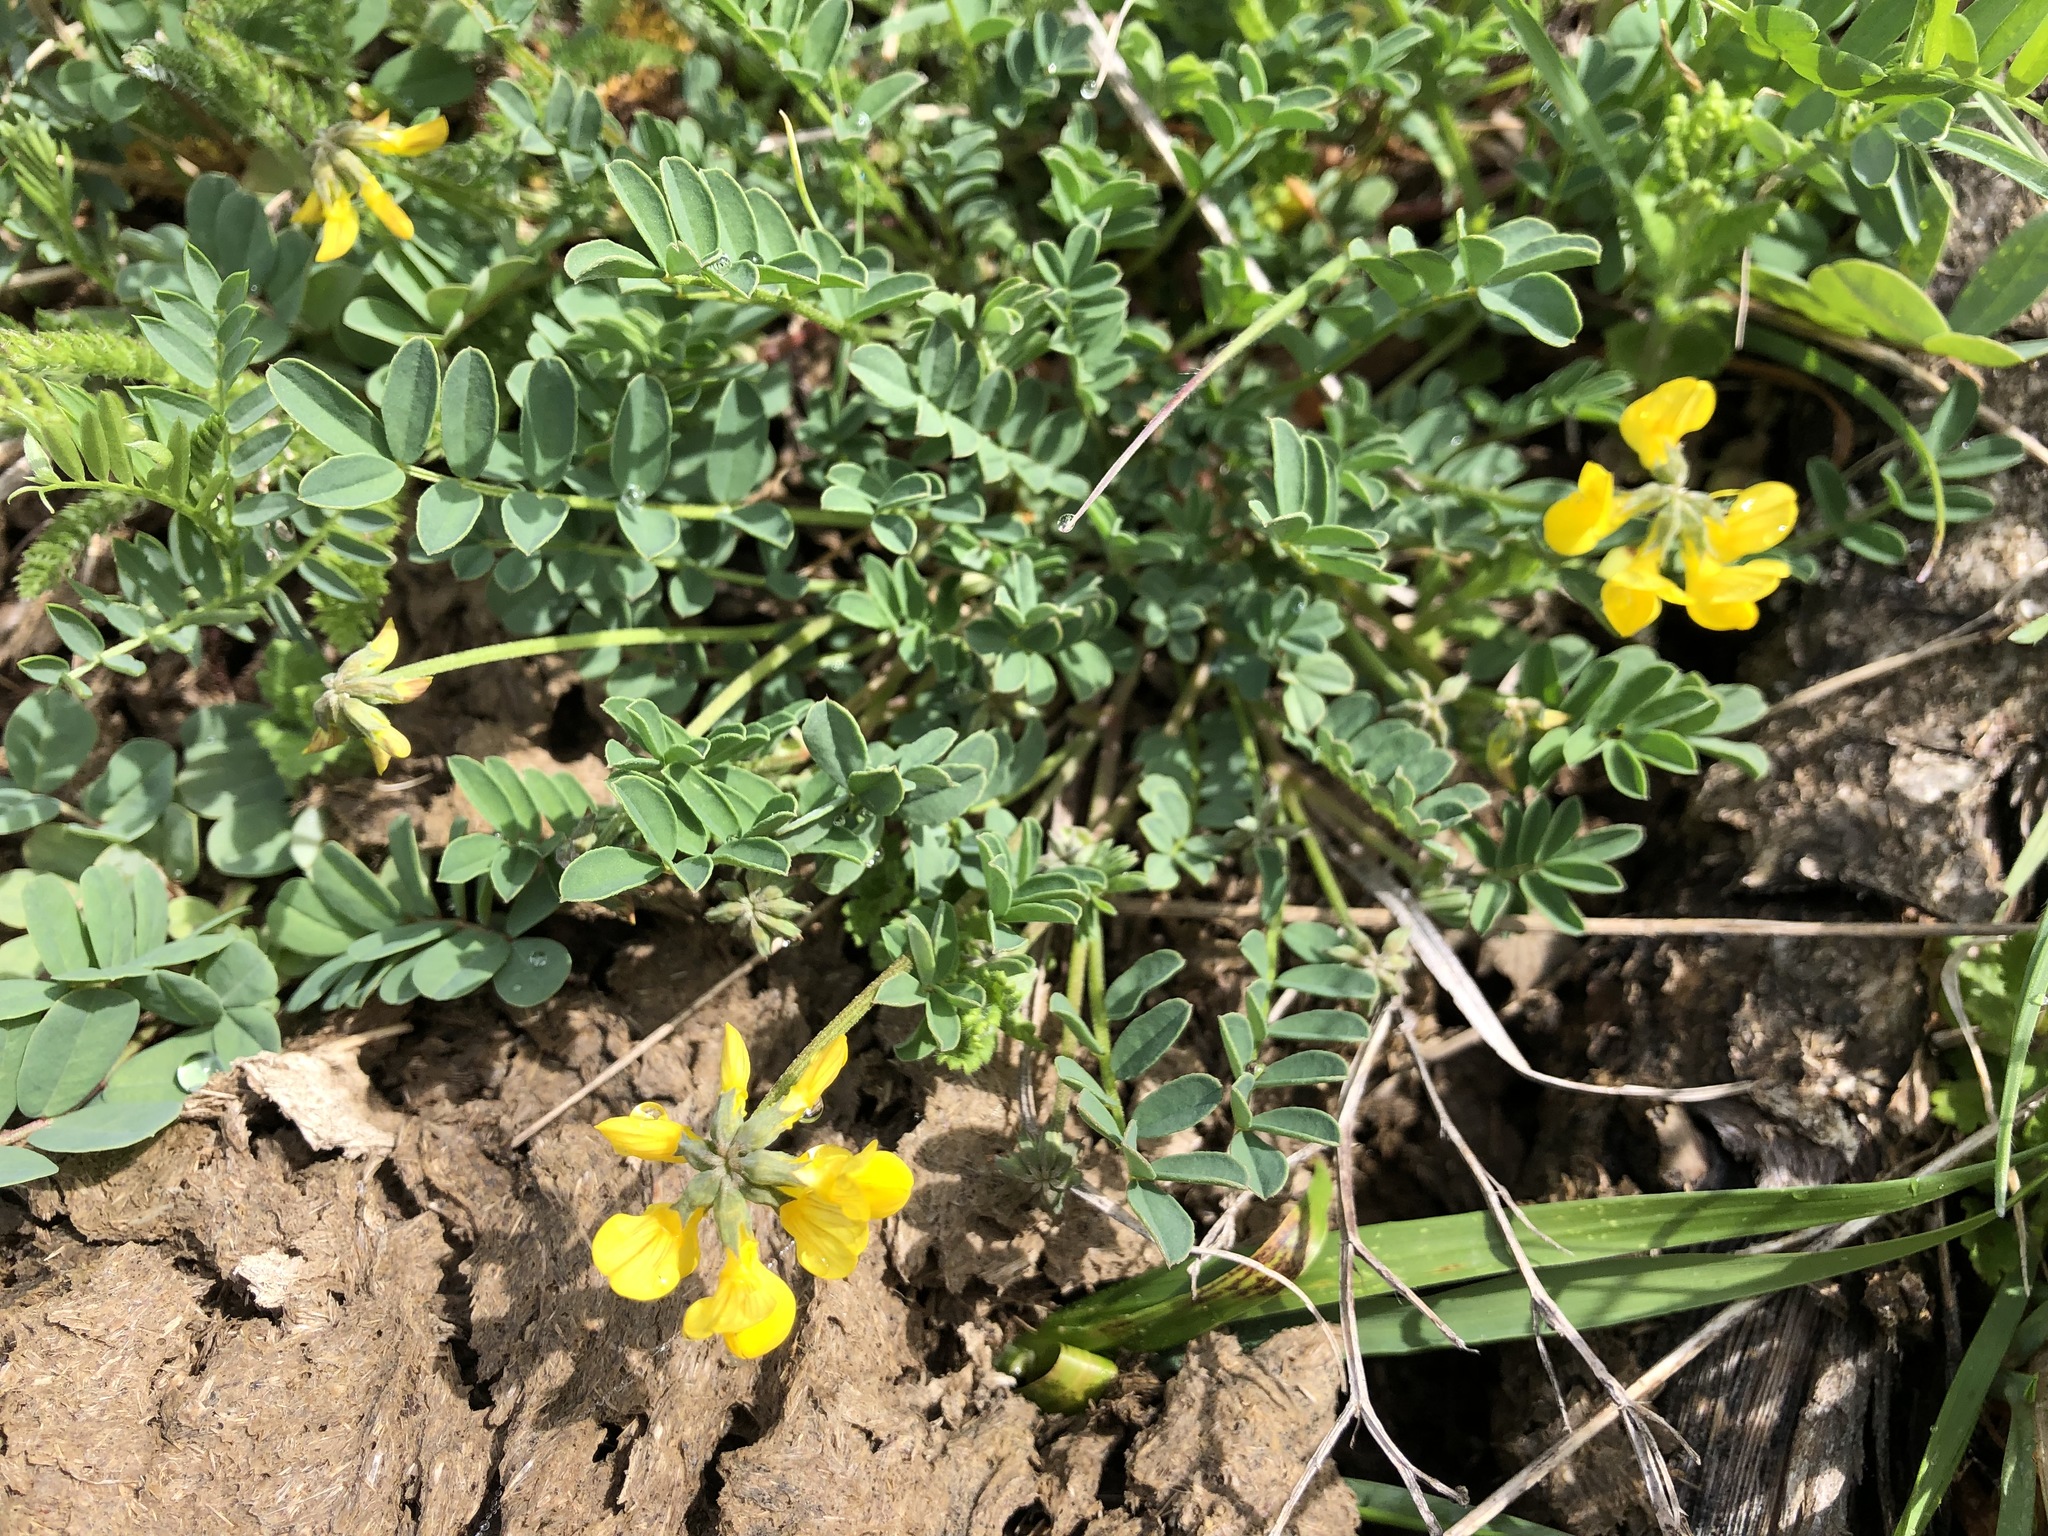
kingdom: Plantae
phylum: Tracheophyta
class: Magnoliopsida
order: Fabales
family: Fabaceae
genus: Hippocrepis
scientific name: Hippocrepis comosa
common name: Horseshoe vetch
